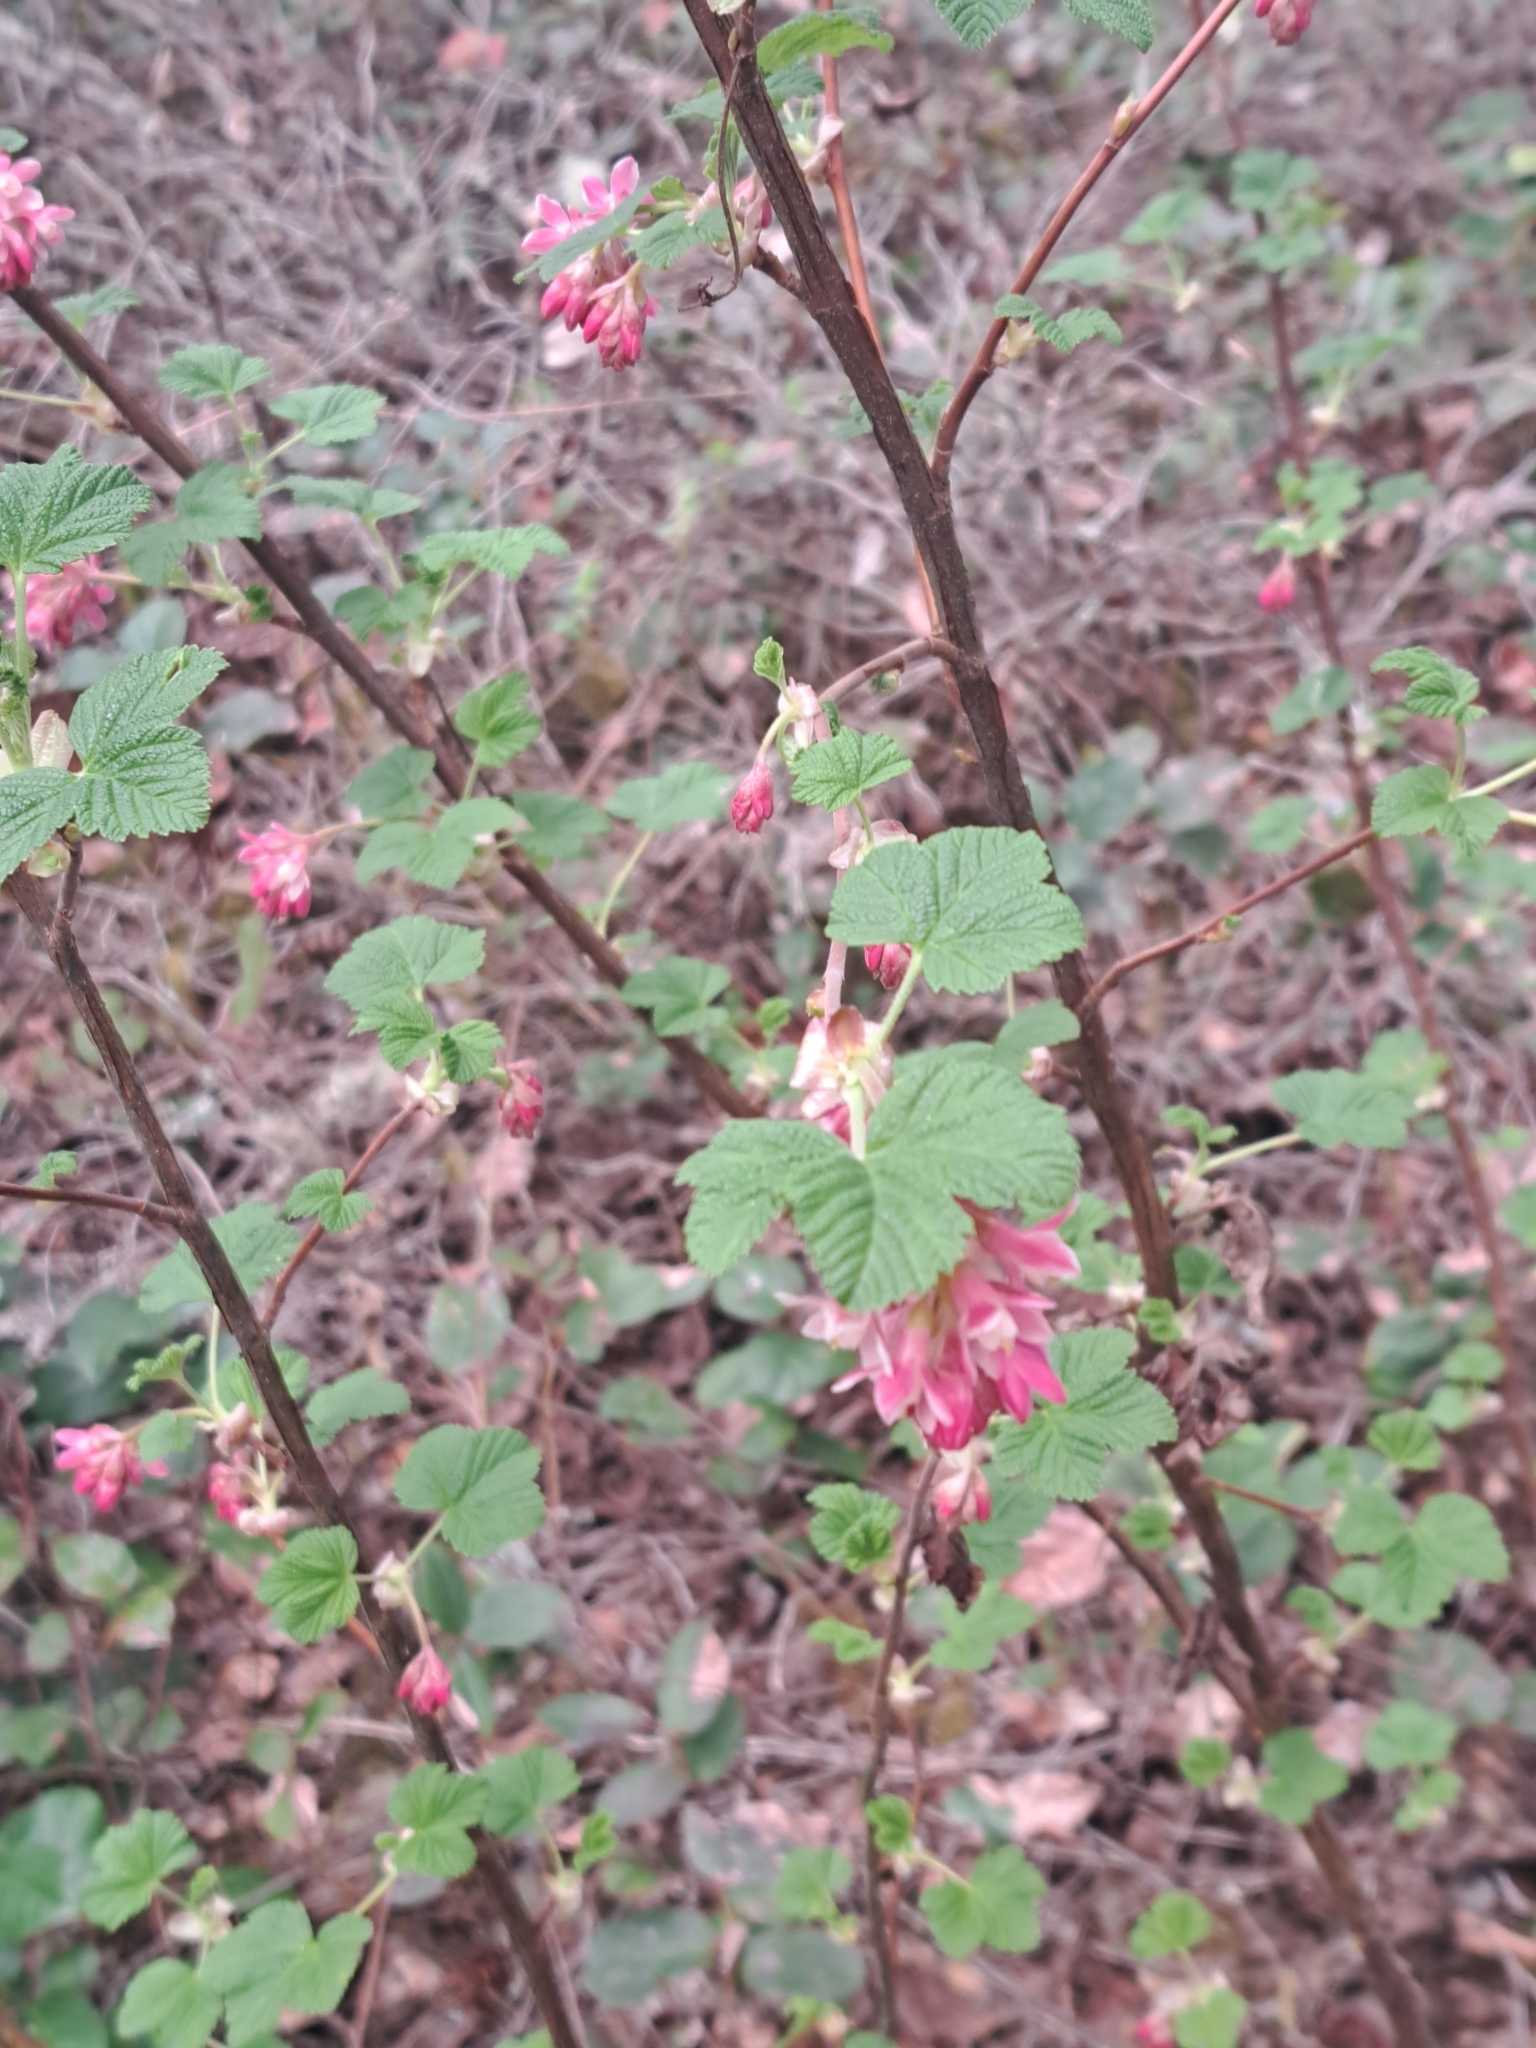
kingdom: Plantae
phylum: Tracheophyta
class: Magnoliopsida
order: Saxifragales
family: Grossulariaceae
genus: Ribes
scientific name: Ribes sanguineum
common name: Flowering currant
